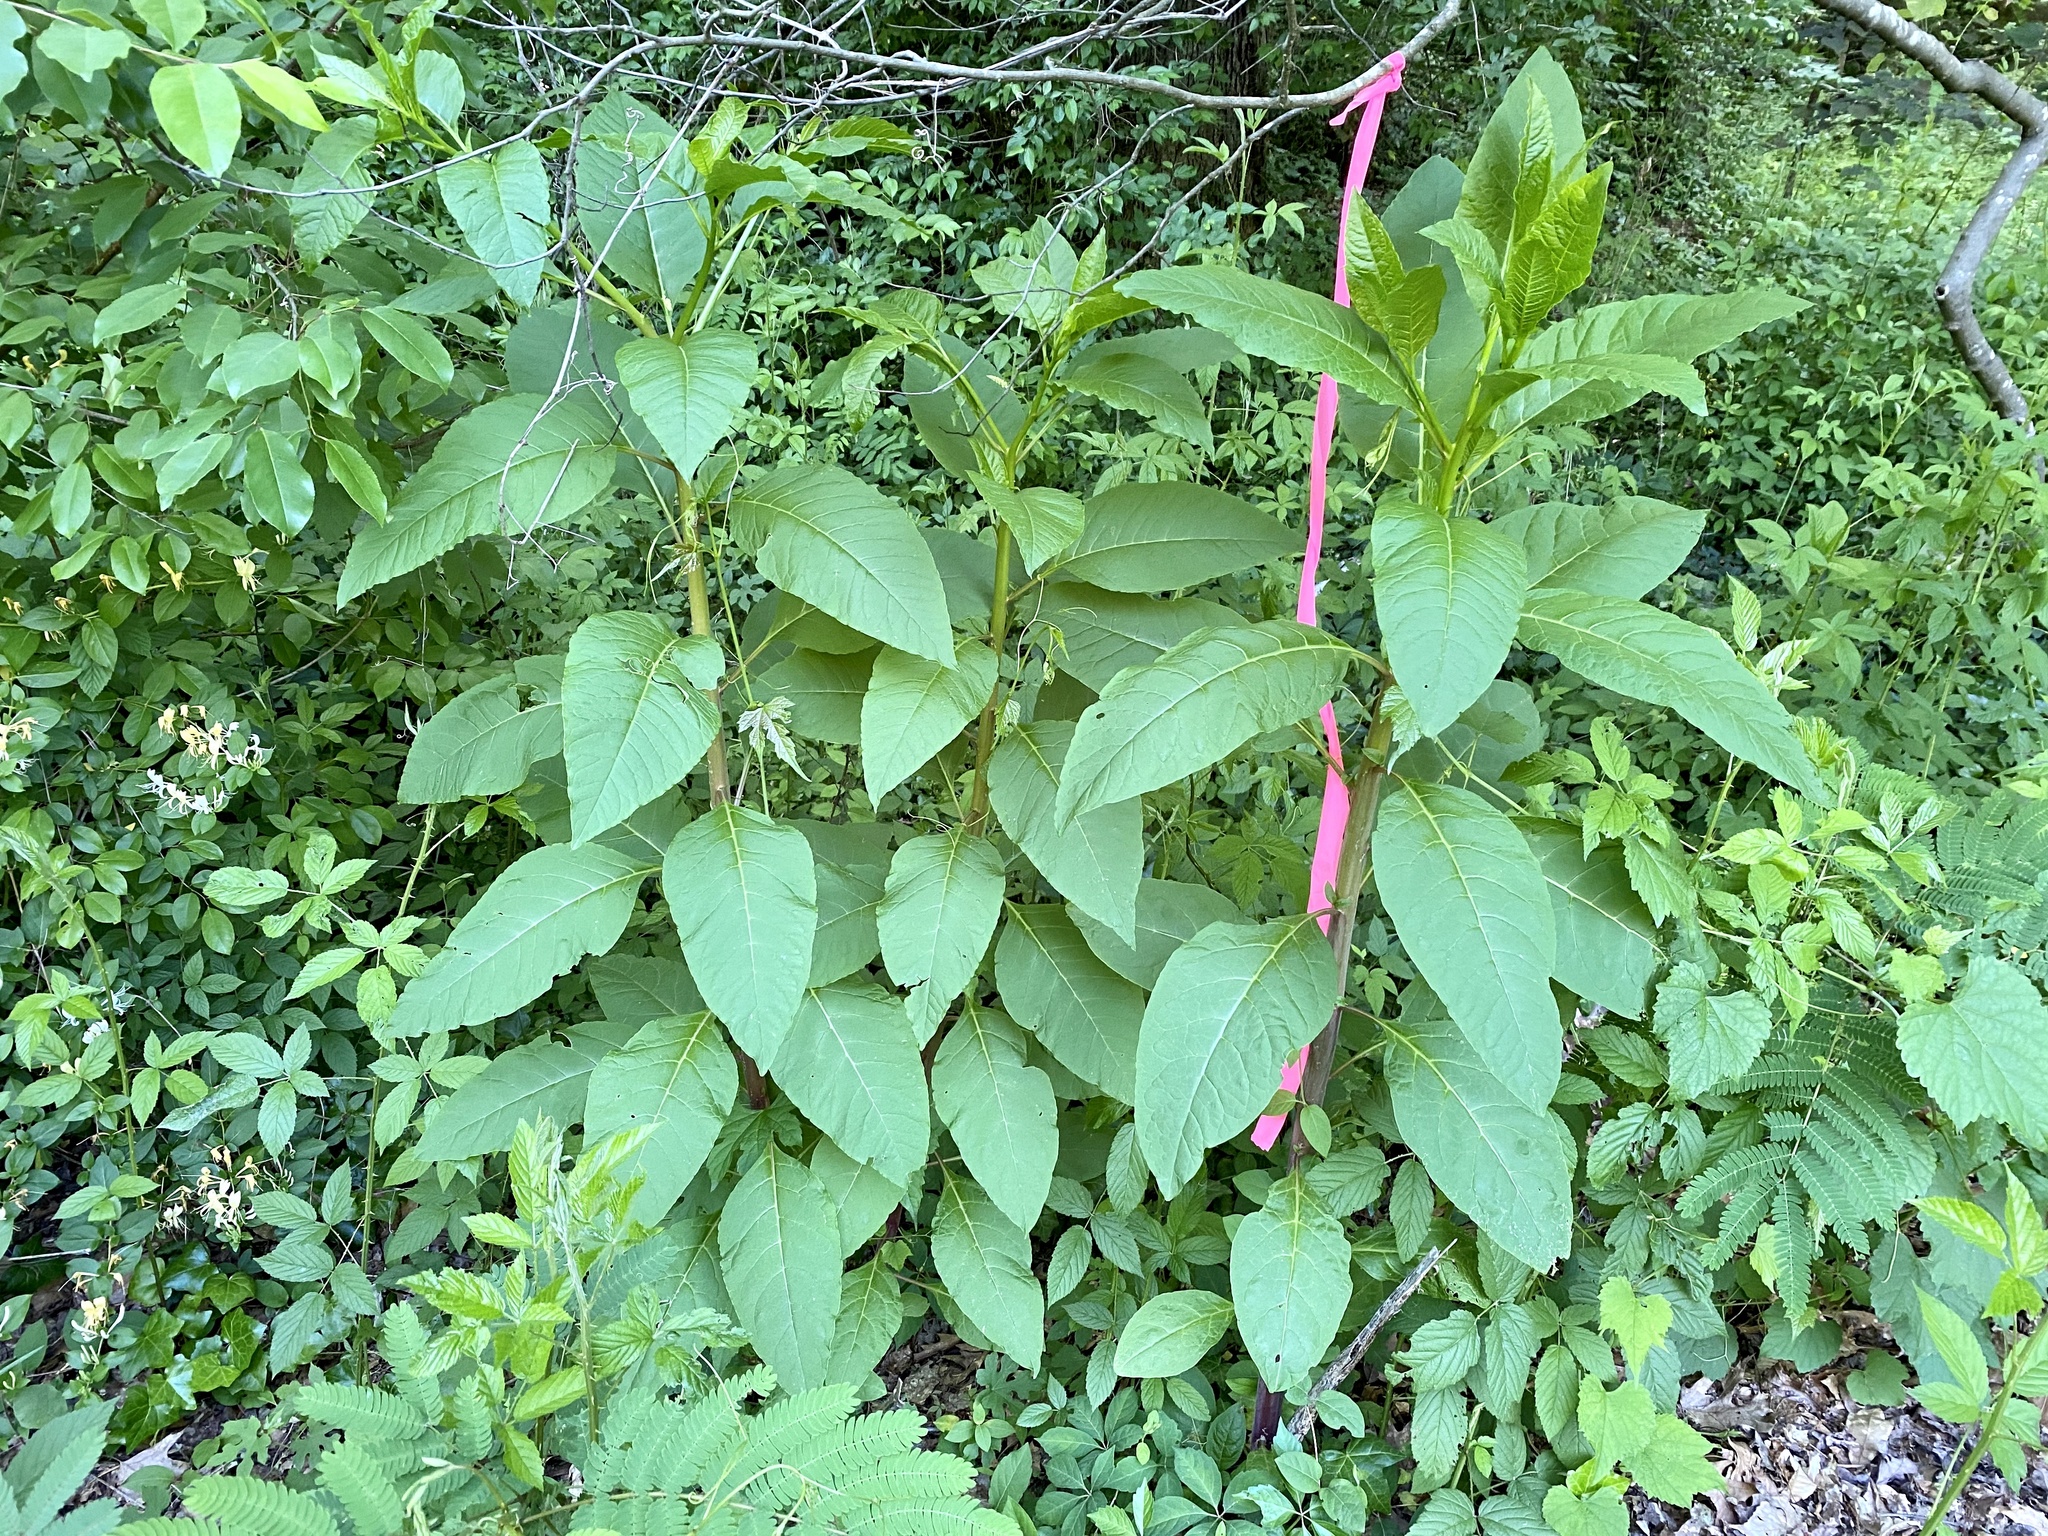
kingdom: Plantae
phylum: Tracheophyta
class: Magnoliopsida
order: Caryophyllales
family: Phytolaccaceae
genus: Phytolacca
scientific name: Phytolacca americana
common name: American pokeweed
